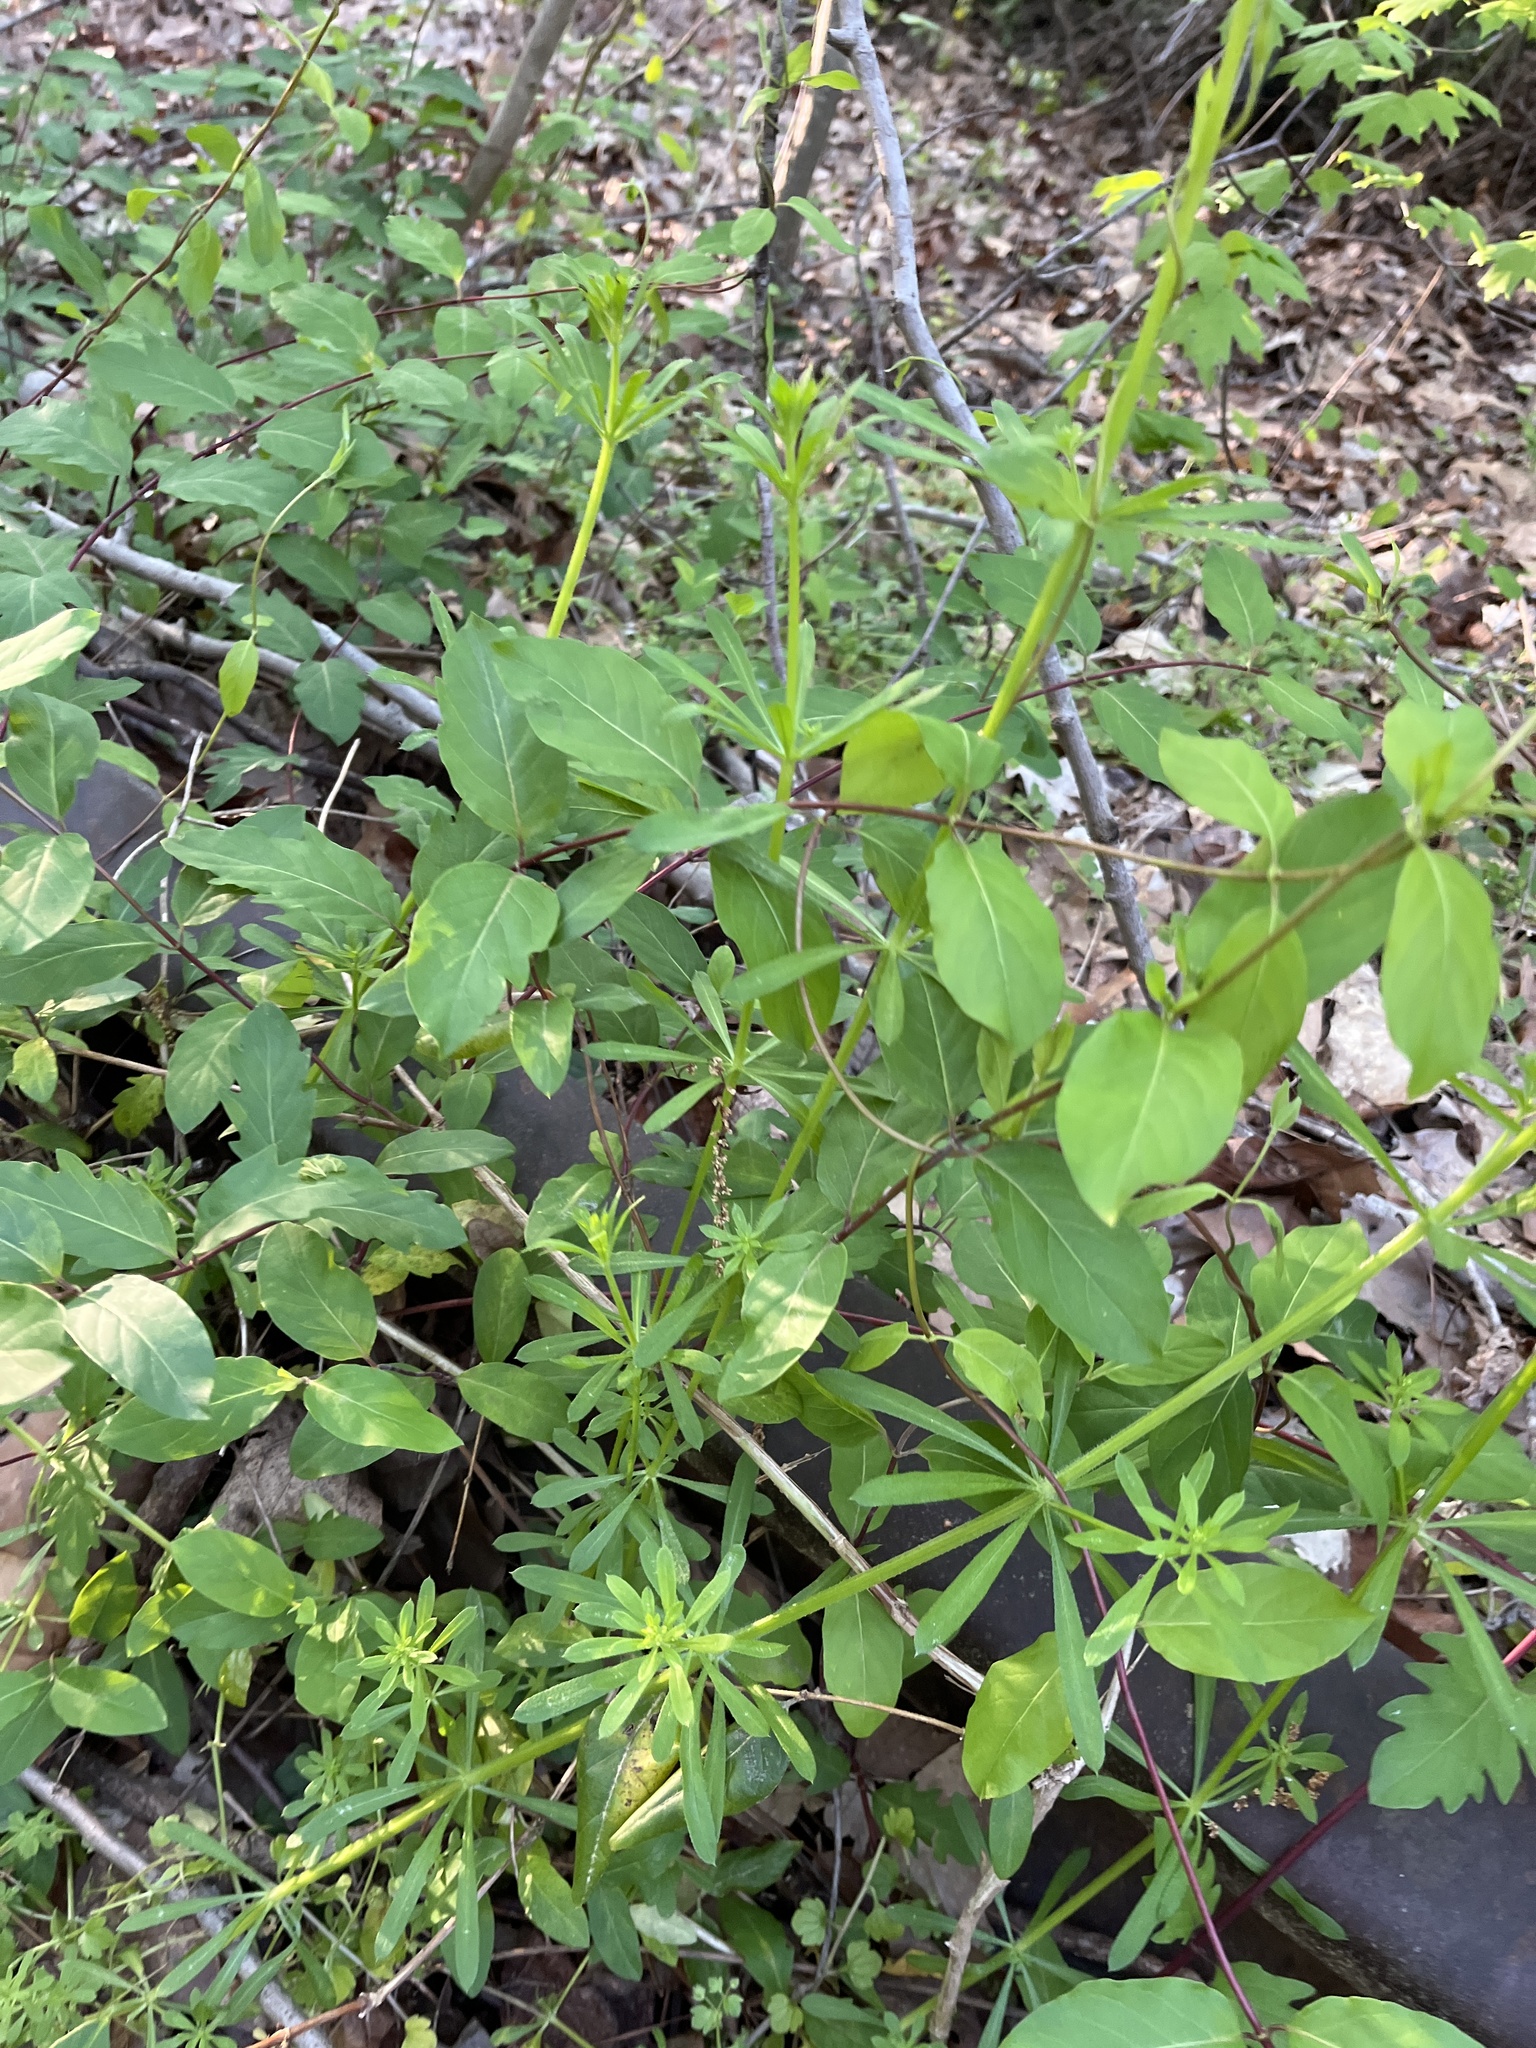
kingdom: Plantae
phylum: Tracheophyta
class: Magnoliopsida
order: Gentianales
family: Rubiaceae
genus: Galium
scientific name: Galium aparine
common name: Cleavers
